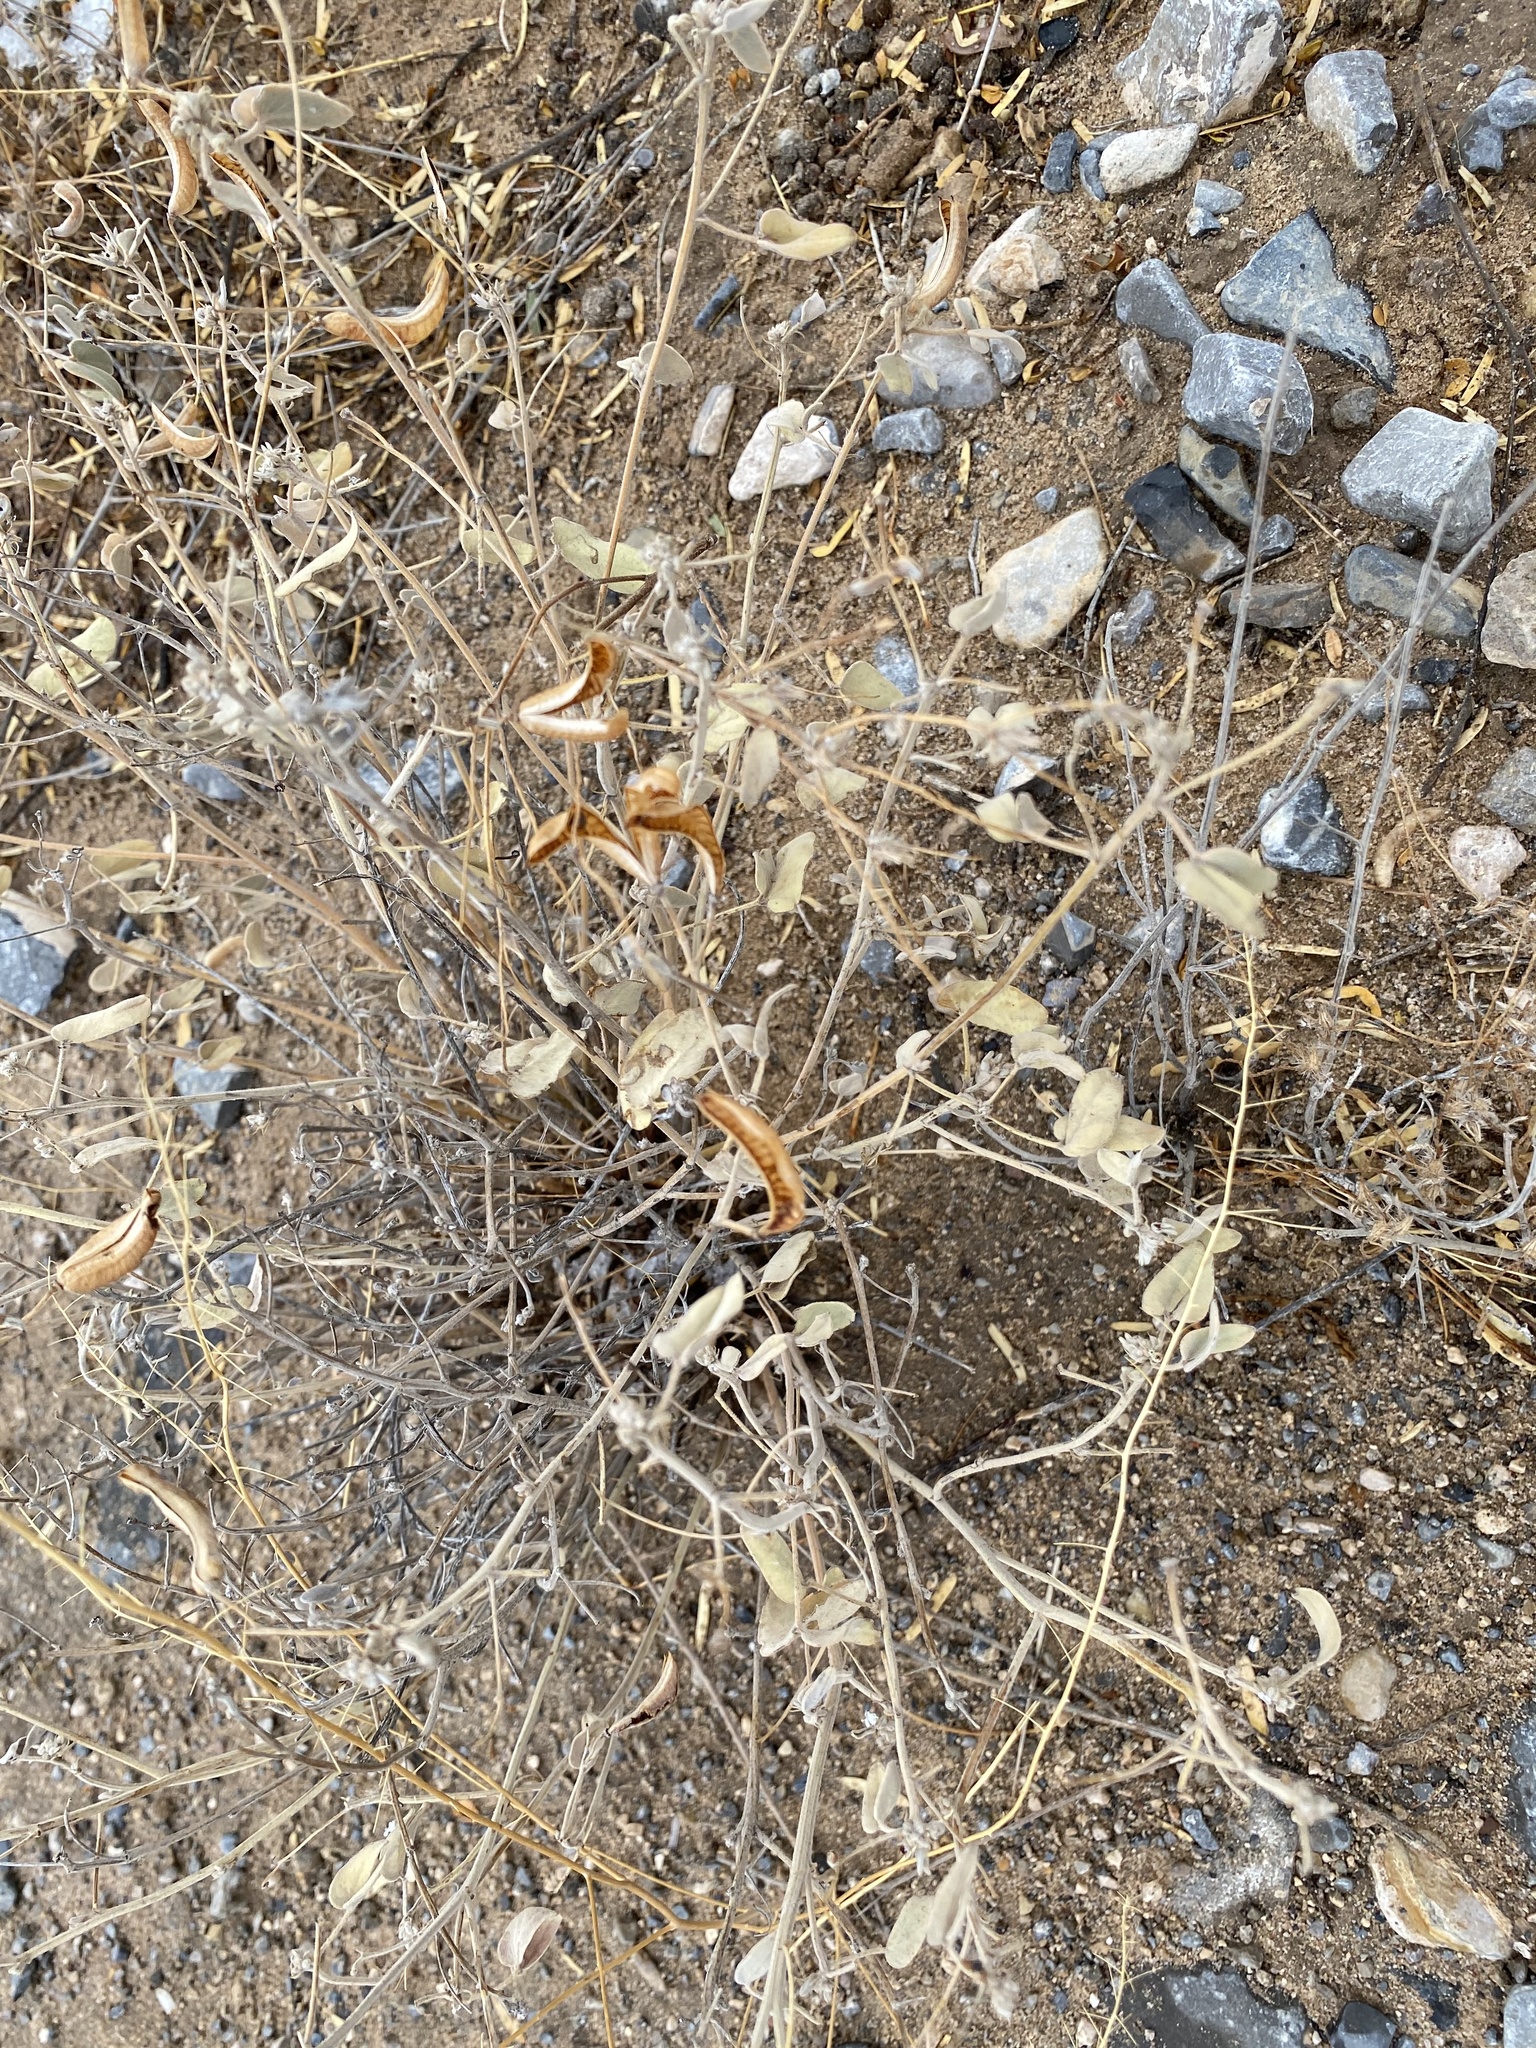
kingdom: Plantae
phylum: Tracheophyta
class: Magnoliopsida
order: Fabales
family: Fabaceae
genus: Senna
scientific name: Senna bauhinioides
